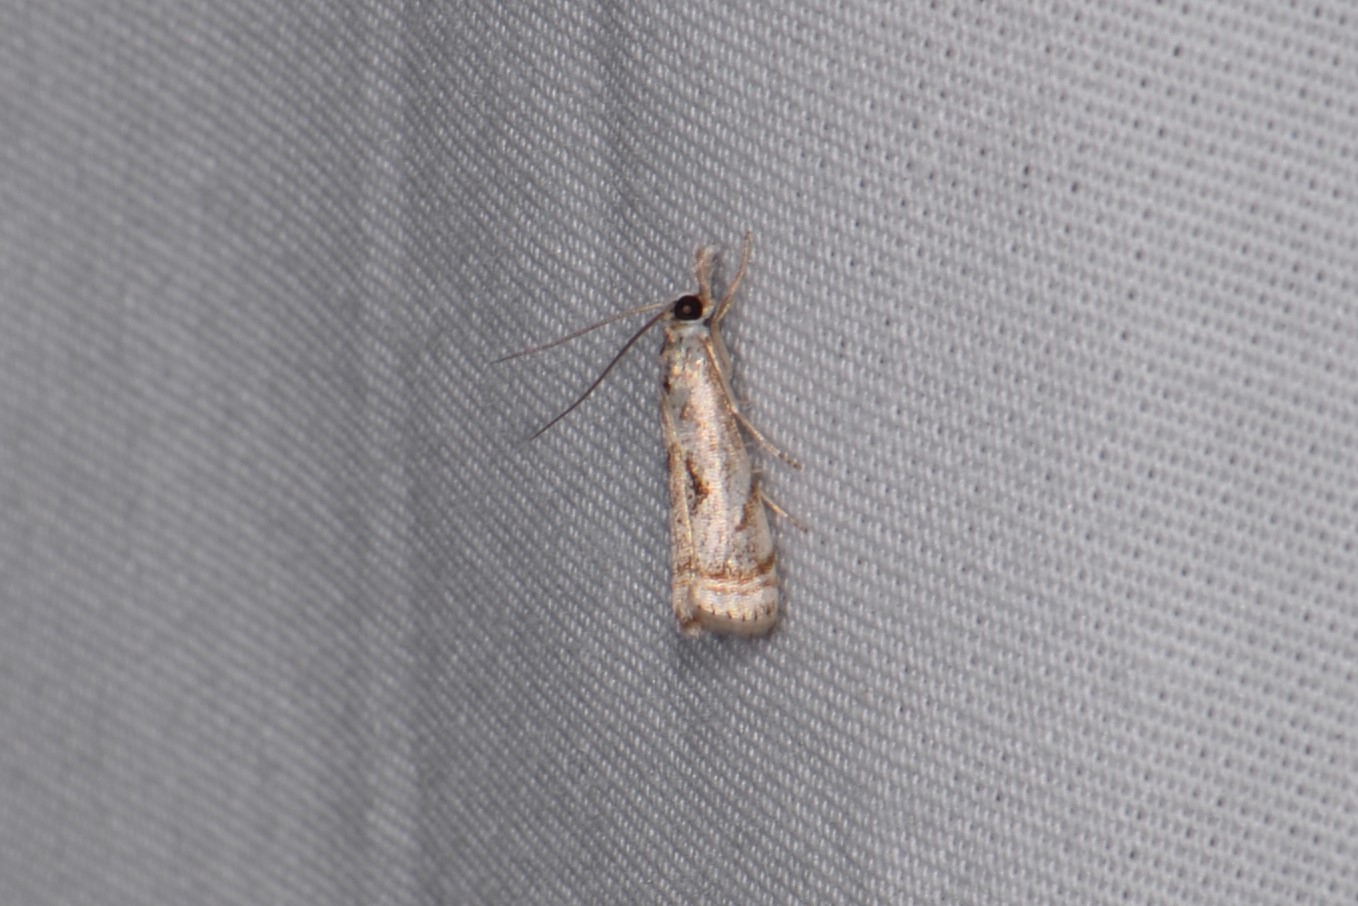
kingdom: Animalia
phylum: Arthropoda
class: Insecta
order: Lepidoptera
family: Crambidae
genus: Microcrambus
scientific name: Microcrambus elegans
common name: Elegant grass-veneer
